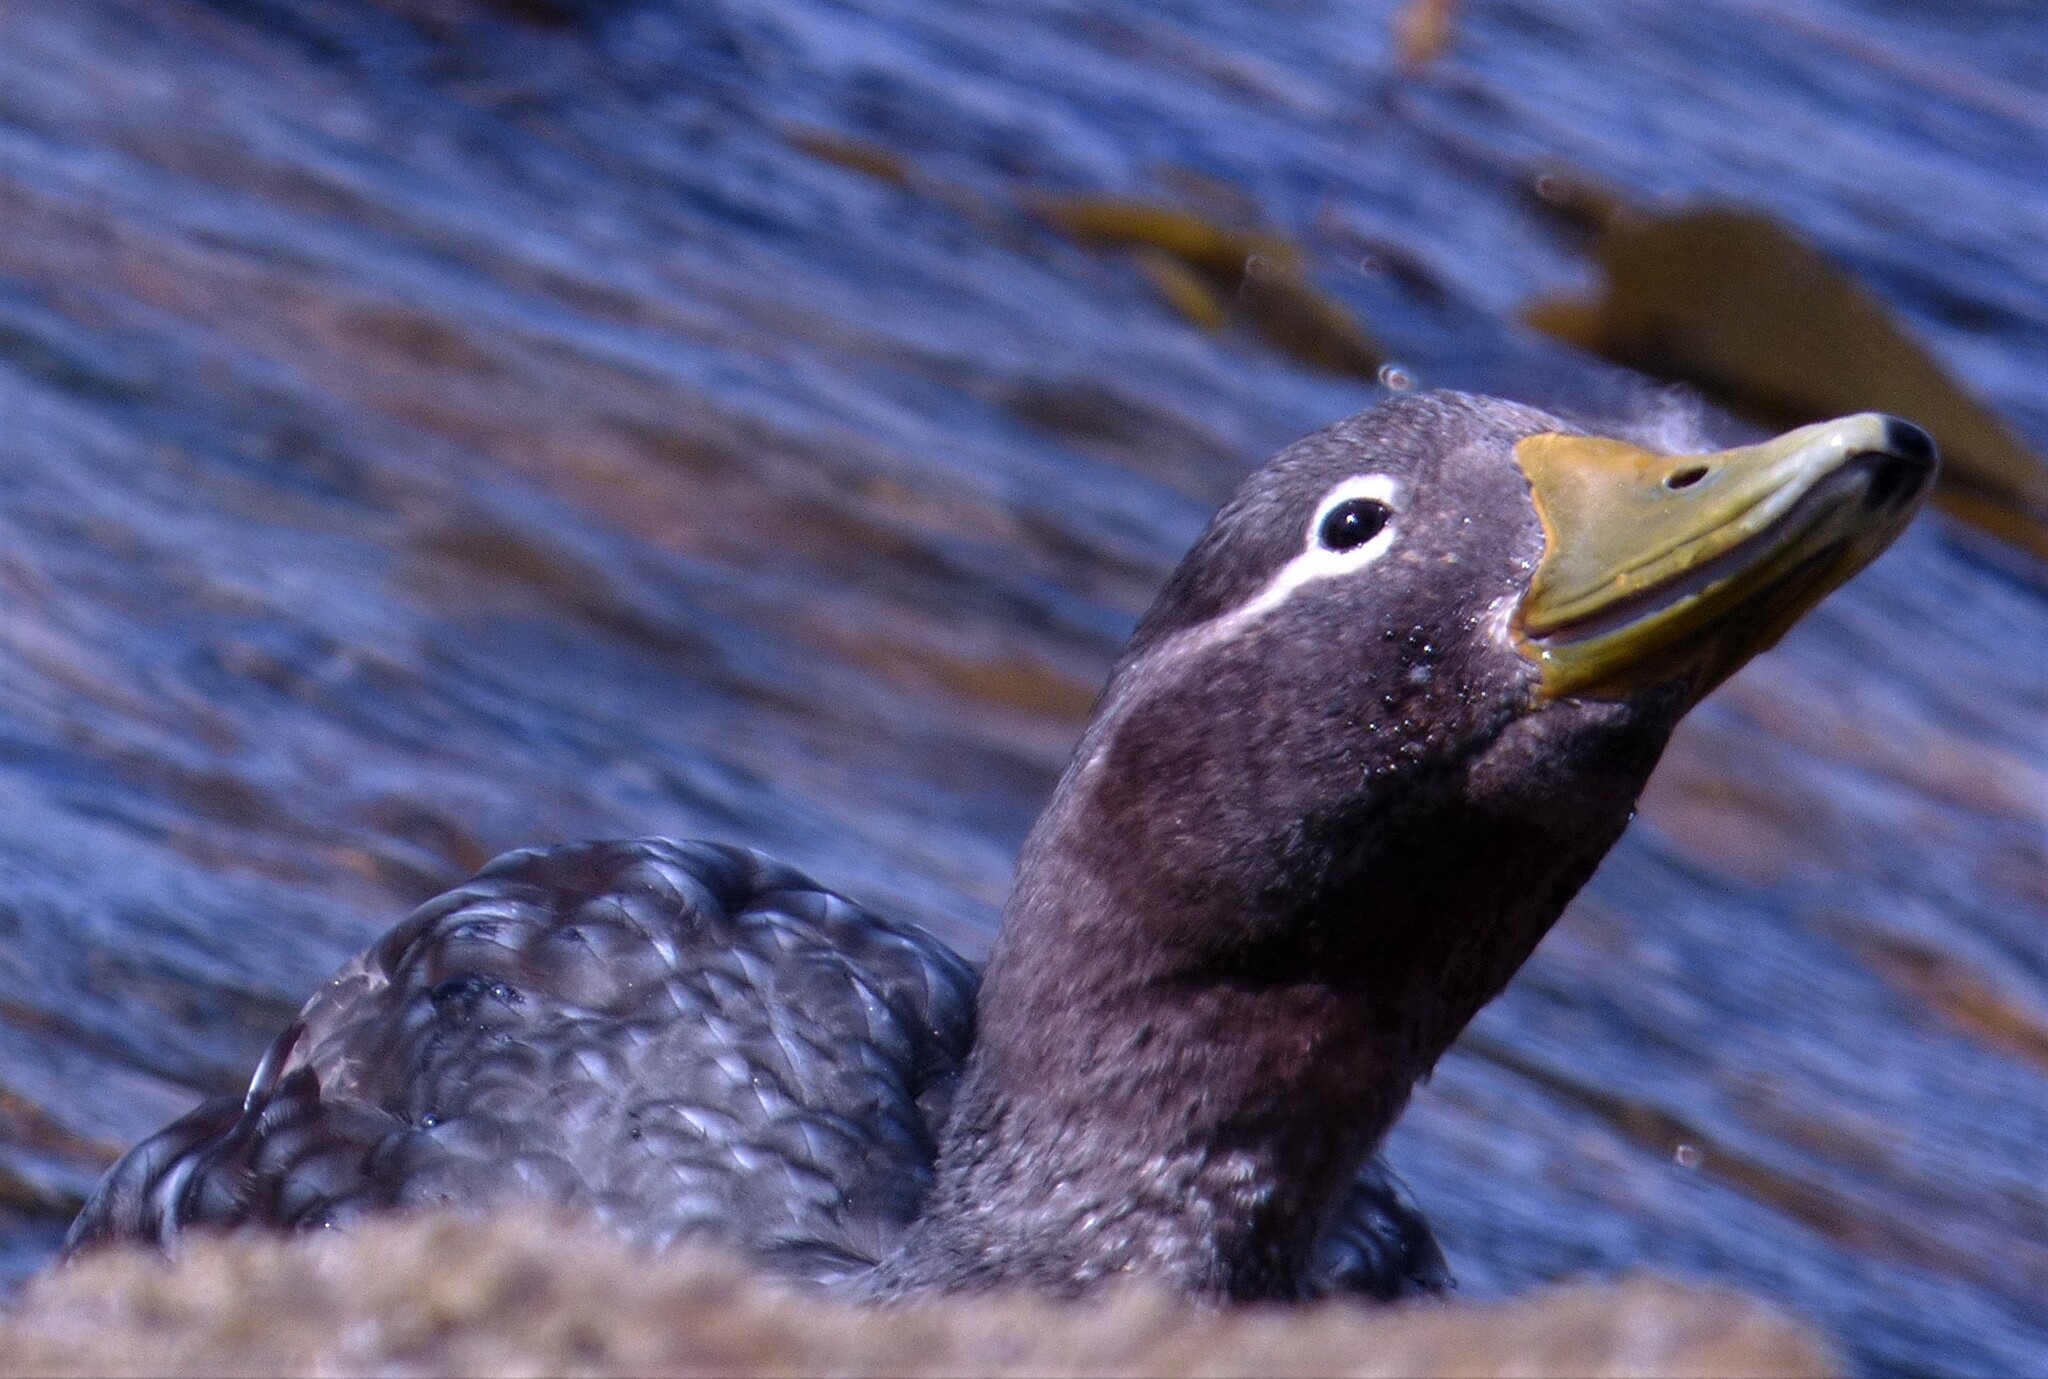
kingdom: Animalia
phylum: Chordata
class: Aves
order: Anseriformes
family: Anatidae
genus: Tachyeres
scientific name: Tachyeres brachypterus
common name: Falkland steamer duck
